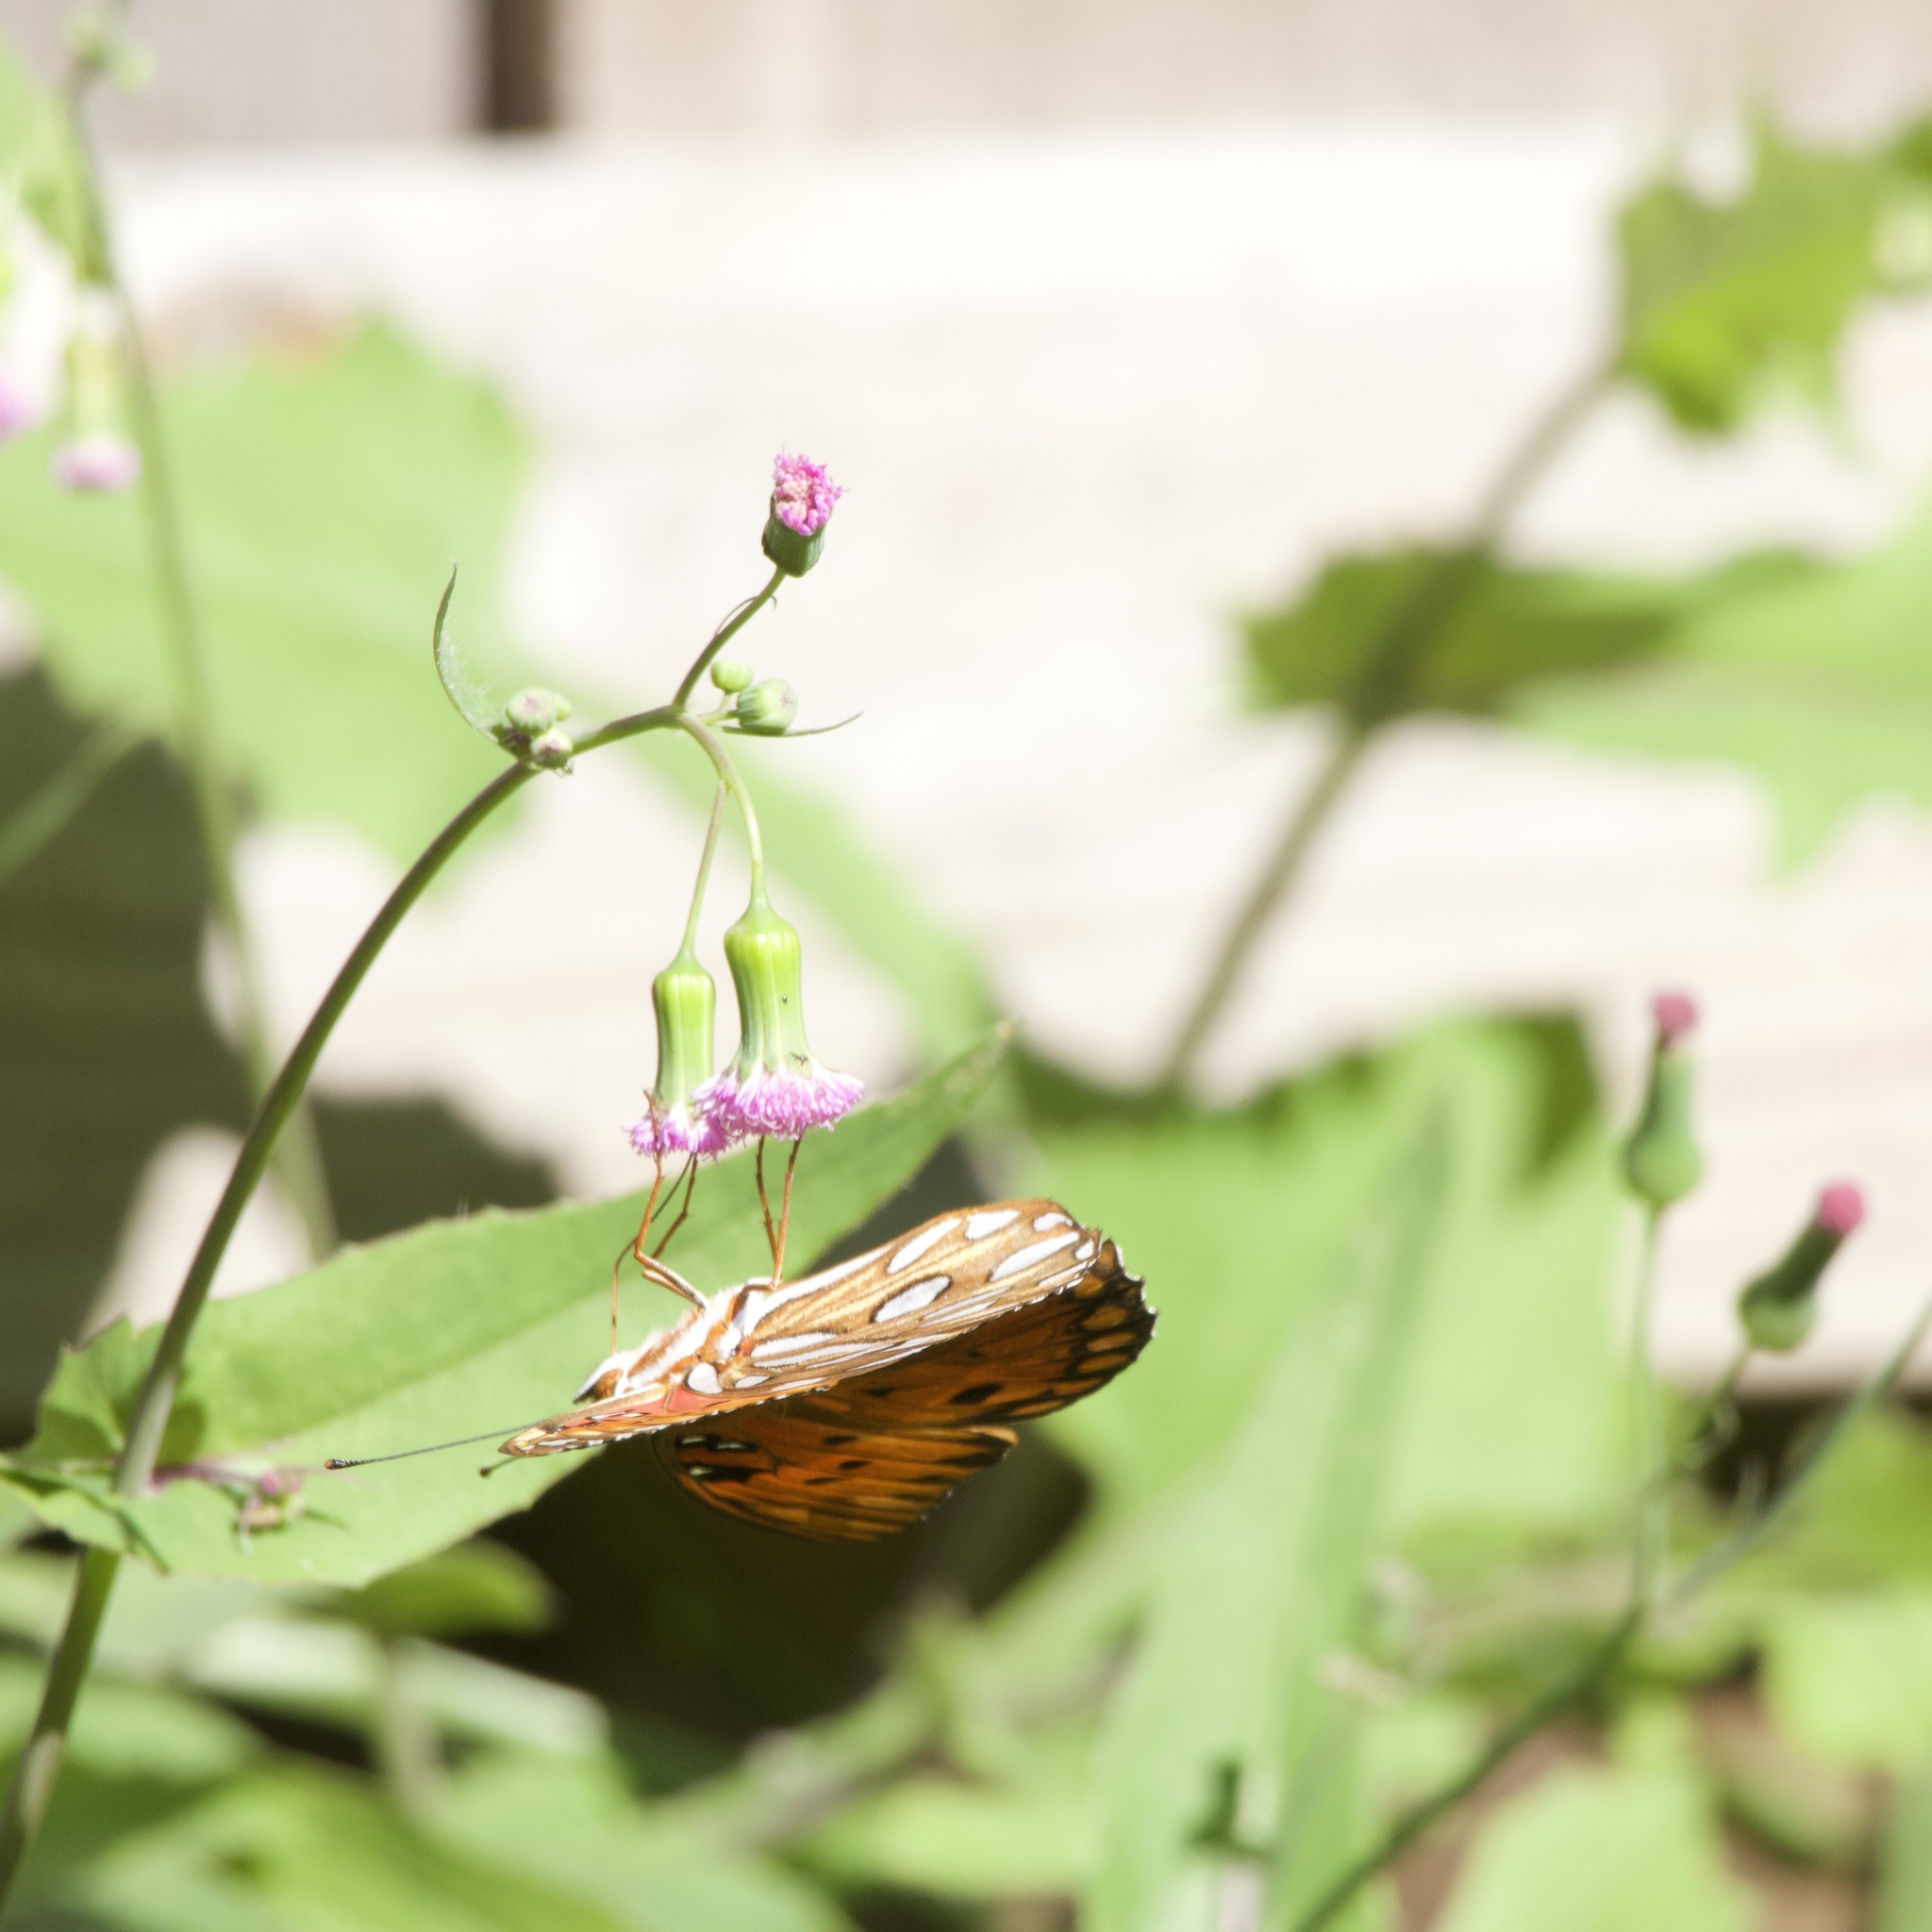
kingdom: Animalia
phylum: Arthropoda
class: Insecta
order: Lepidoptera
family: Nymphalidae
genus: Dione
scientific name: Dione vanillae
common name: Gulf fritillary
